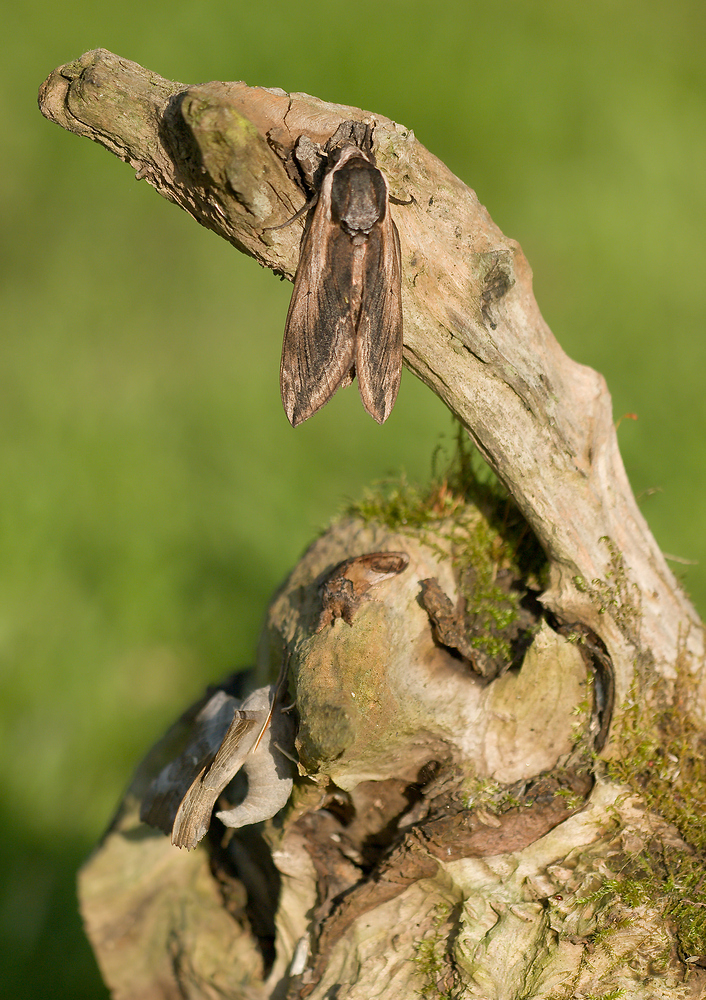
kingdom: Animalia
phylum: Arthropoda
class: Insecta
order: Lepidoptera
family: Sphingidae
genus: Sphinx
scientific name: Sphinx ligustri
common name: Privet hawk-moth
